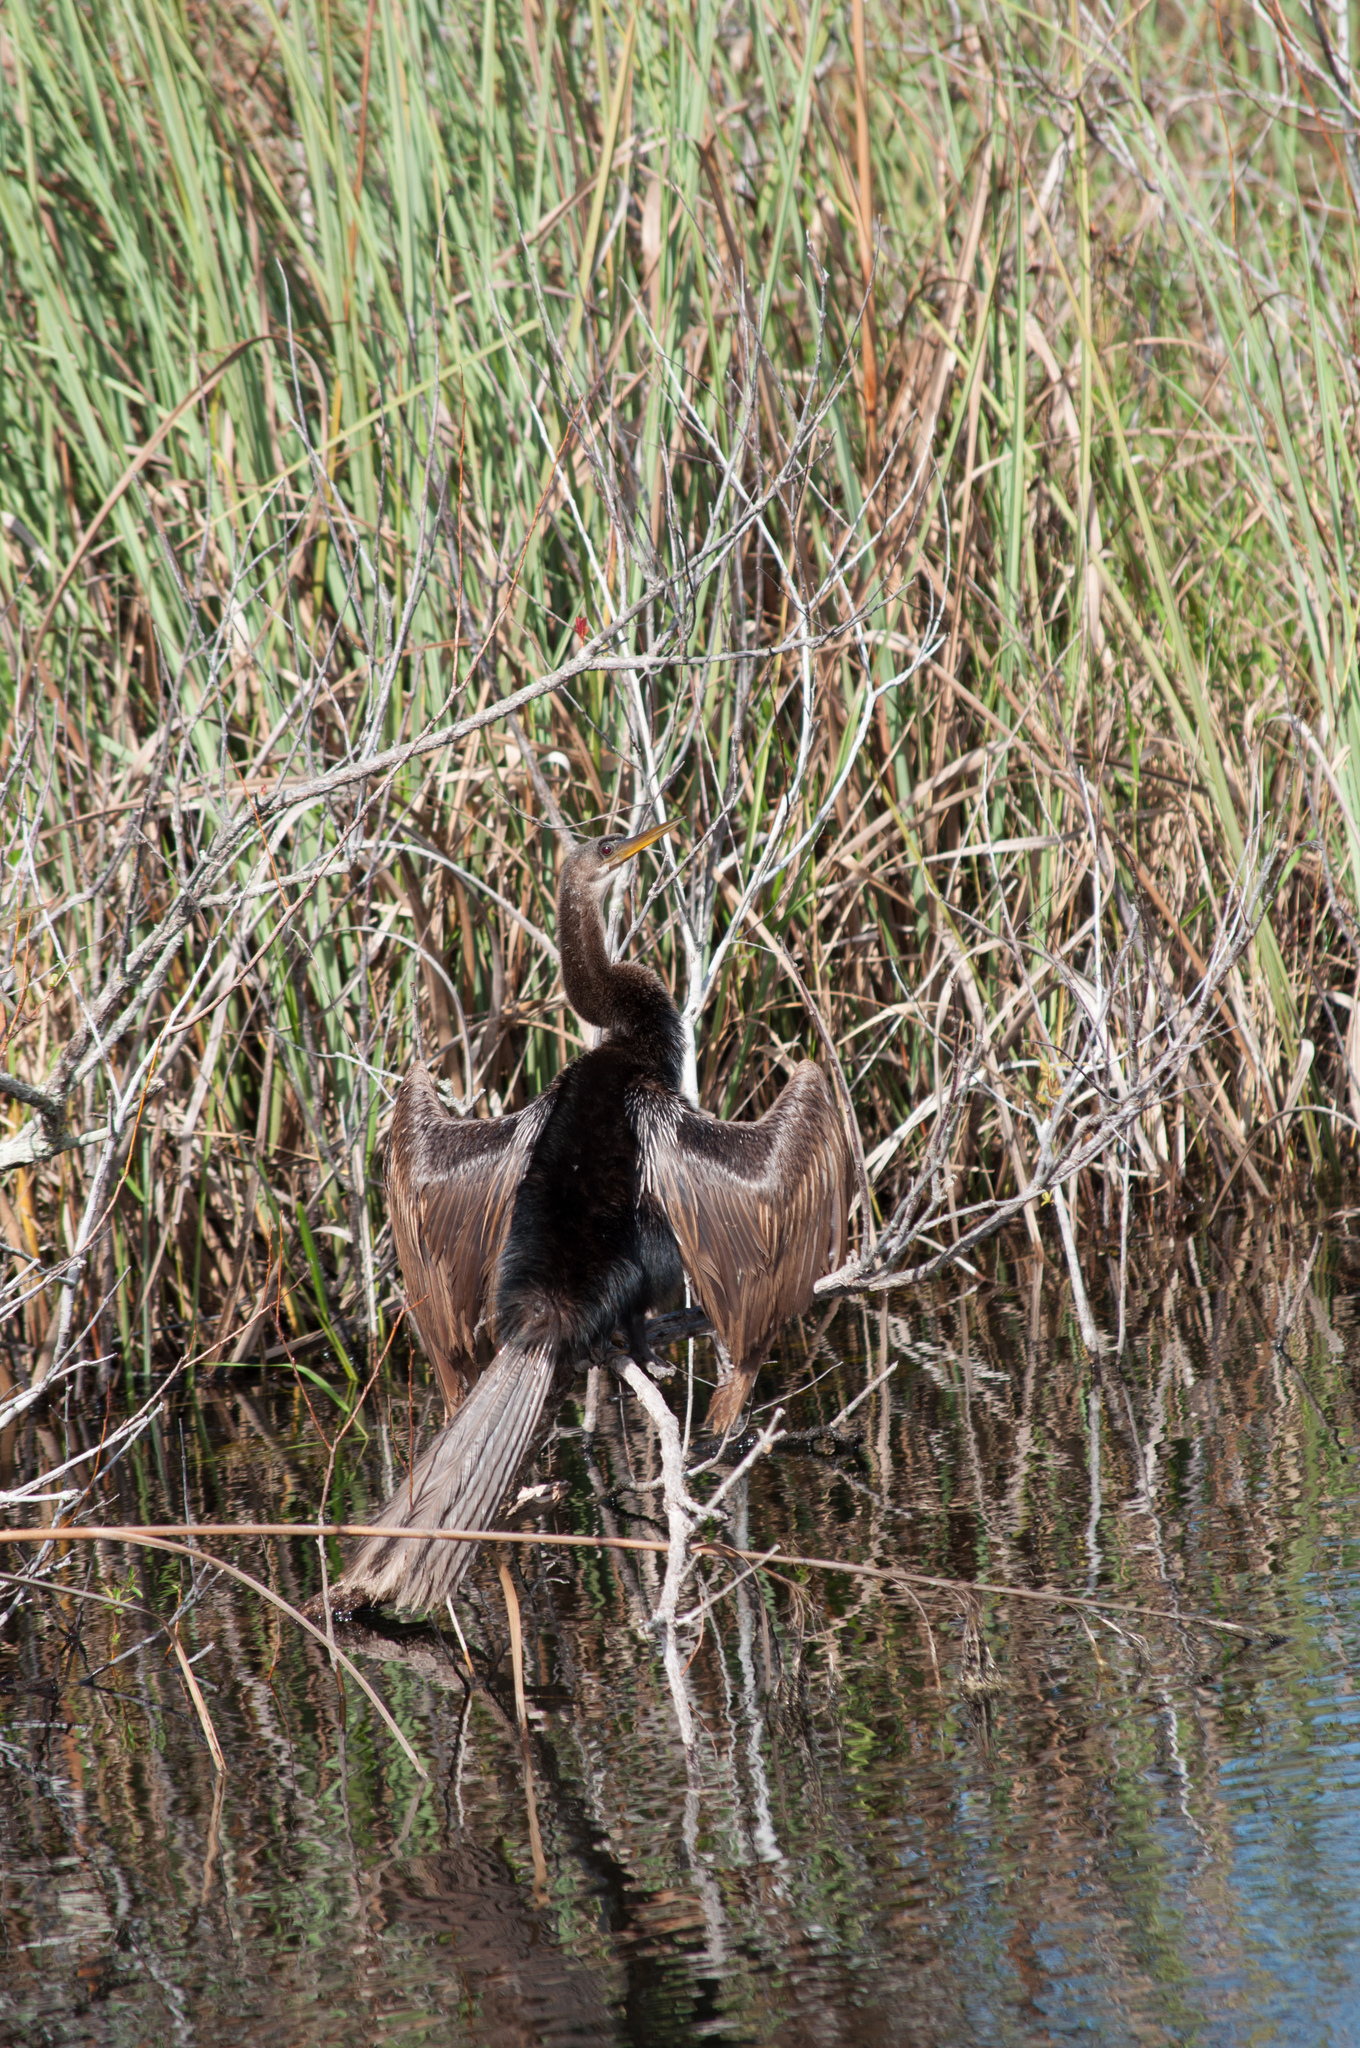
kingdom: Animalia
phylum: Chordata
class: Aves
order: Suliformes
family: Anhingidae
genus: Anhinga
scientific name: Anhinga anhinga
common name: Anhinga
